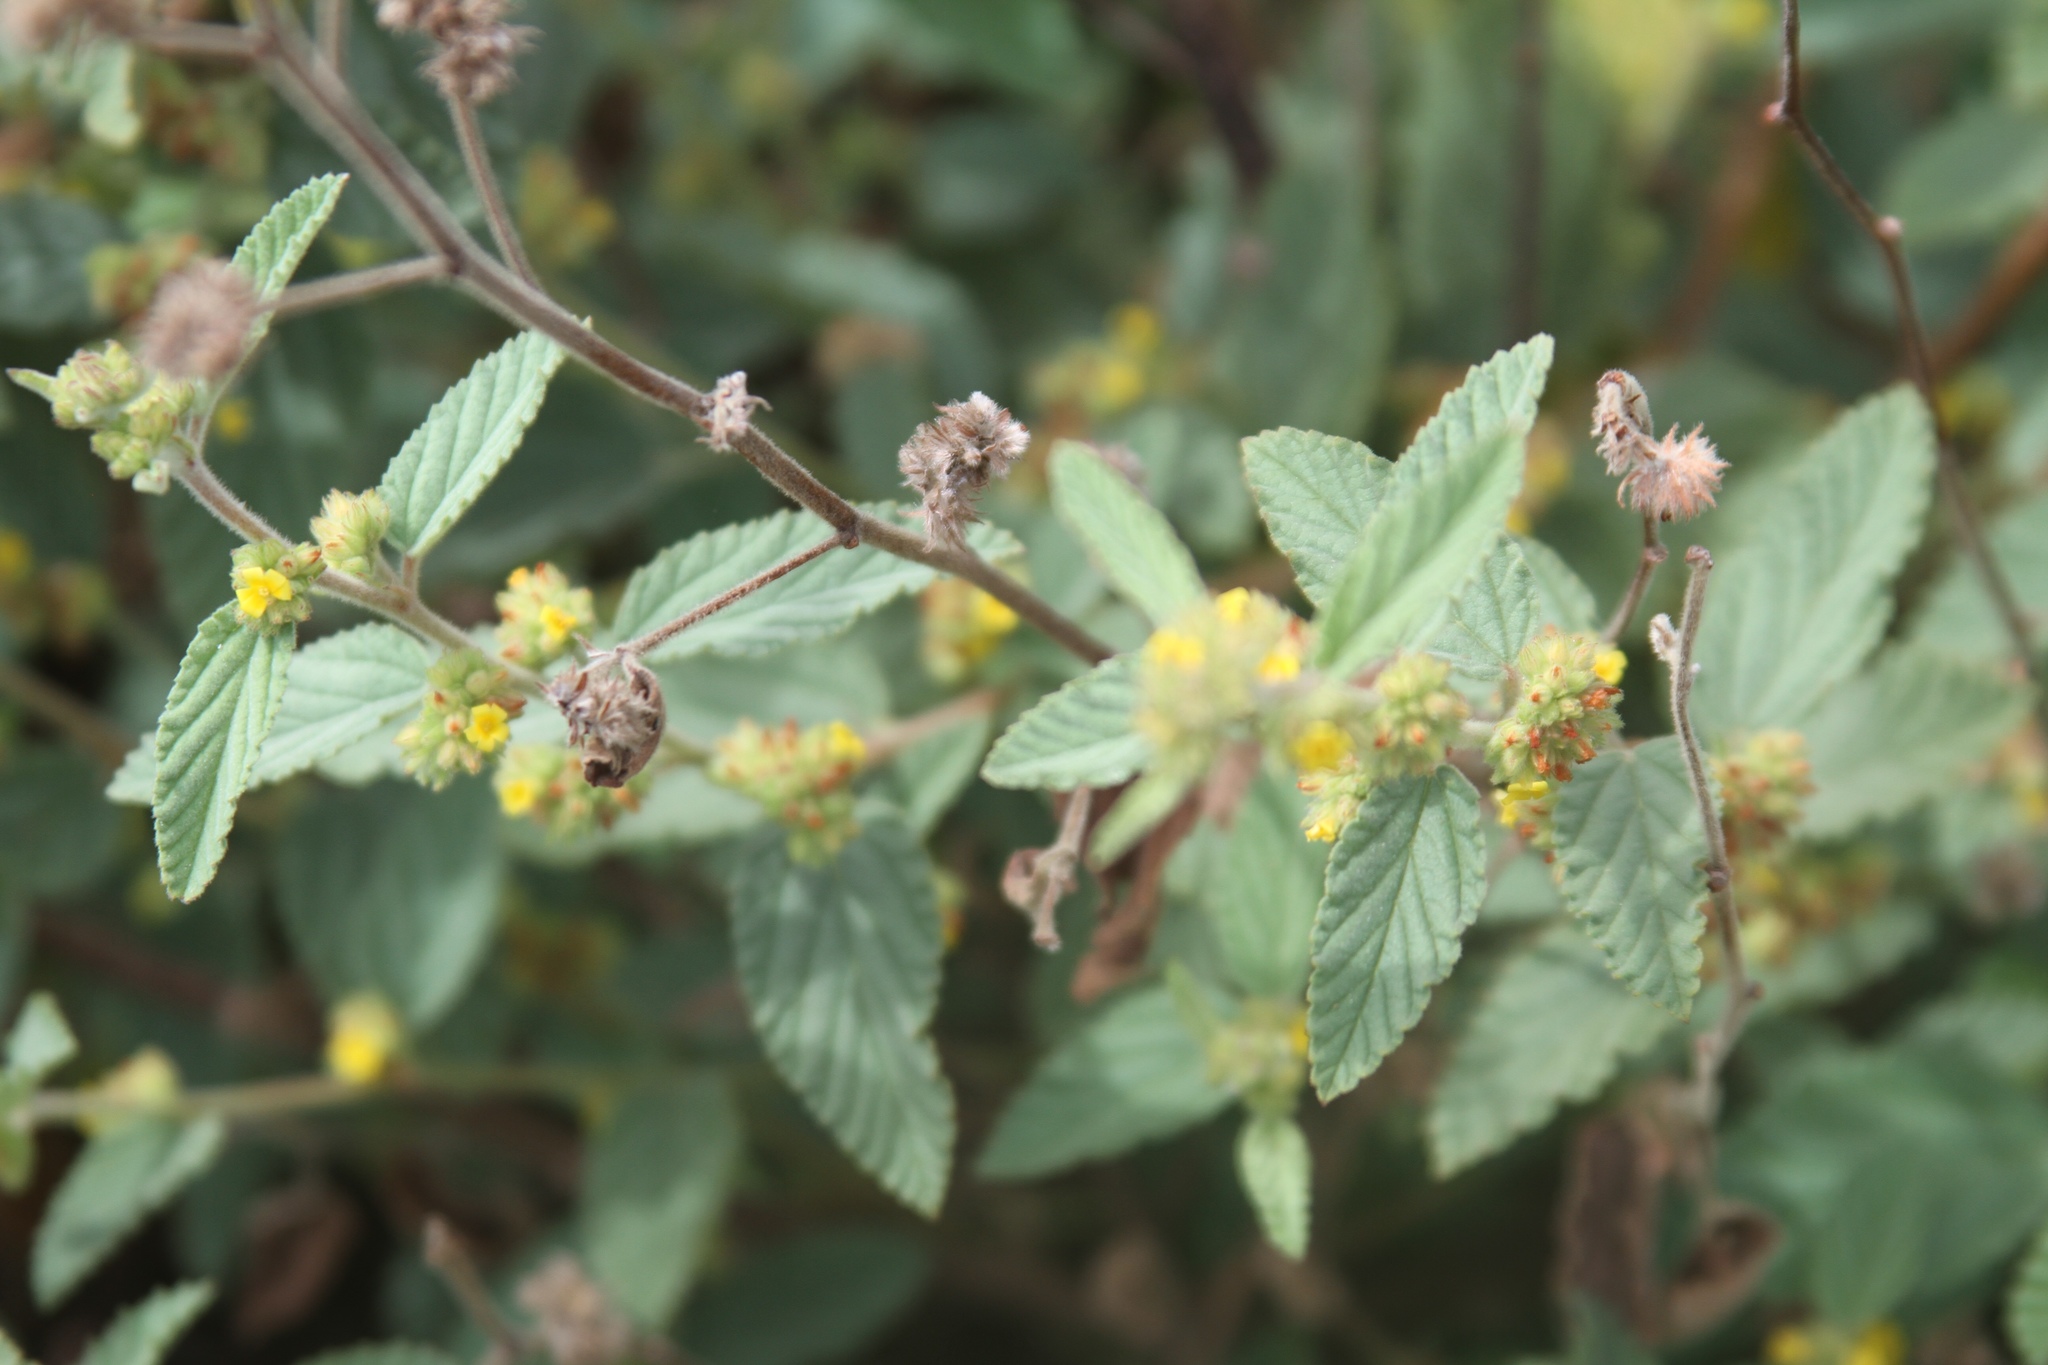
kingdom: Plantae
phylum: Tracheophyta
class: Magnoliopsida
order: Malvales
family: Malvaceae
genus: Waltheria
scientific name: Waltheria indica
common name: Leather-coat
